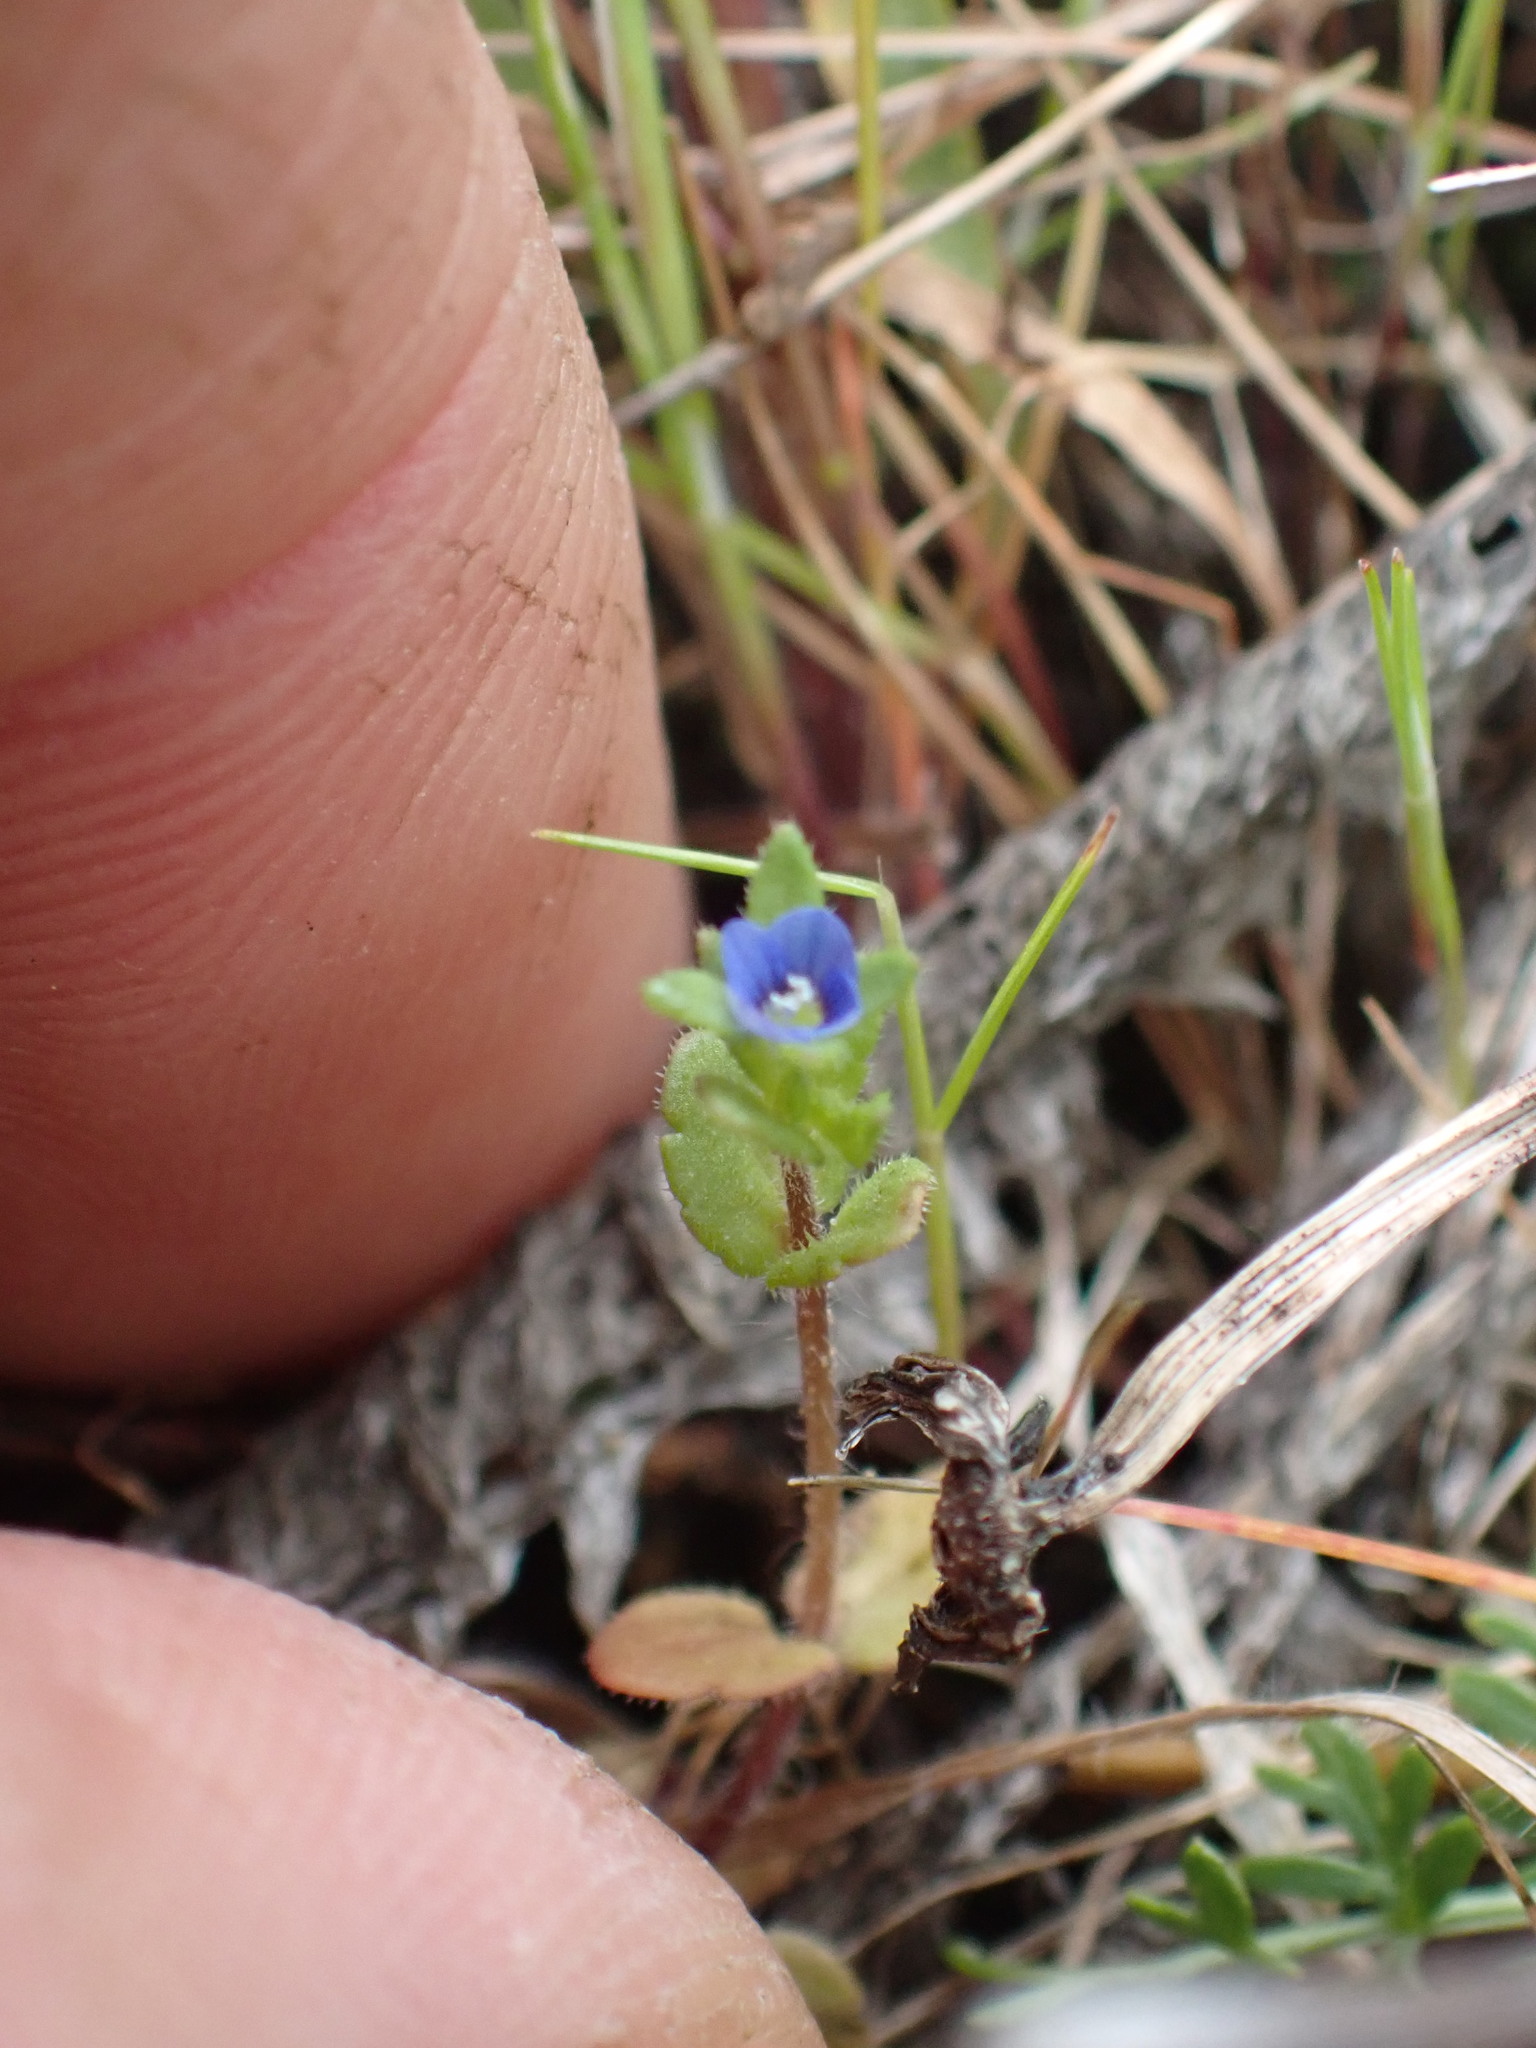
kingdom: Plantae
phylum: Tracheophyta
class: Magnoliopsida
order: Lamiales
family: Plantaginaceae
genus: Veronica
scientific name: Veronica arvensis
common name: Corn speedwell
